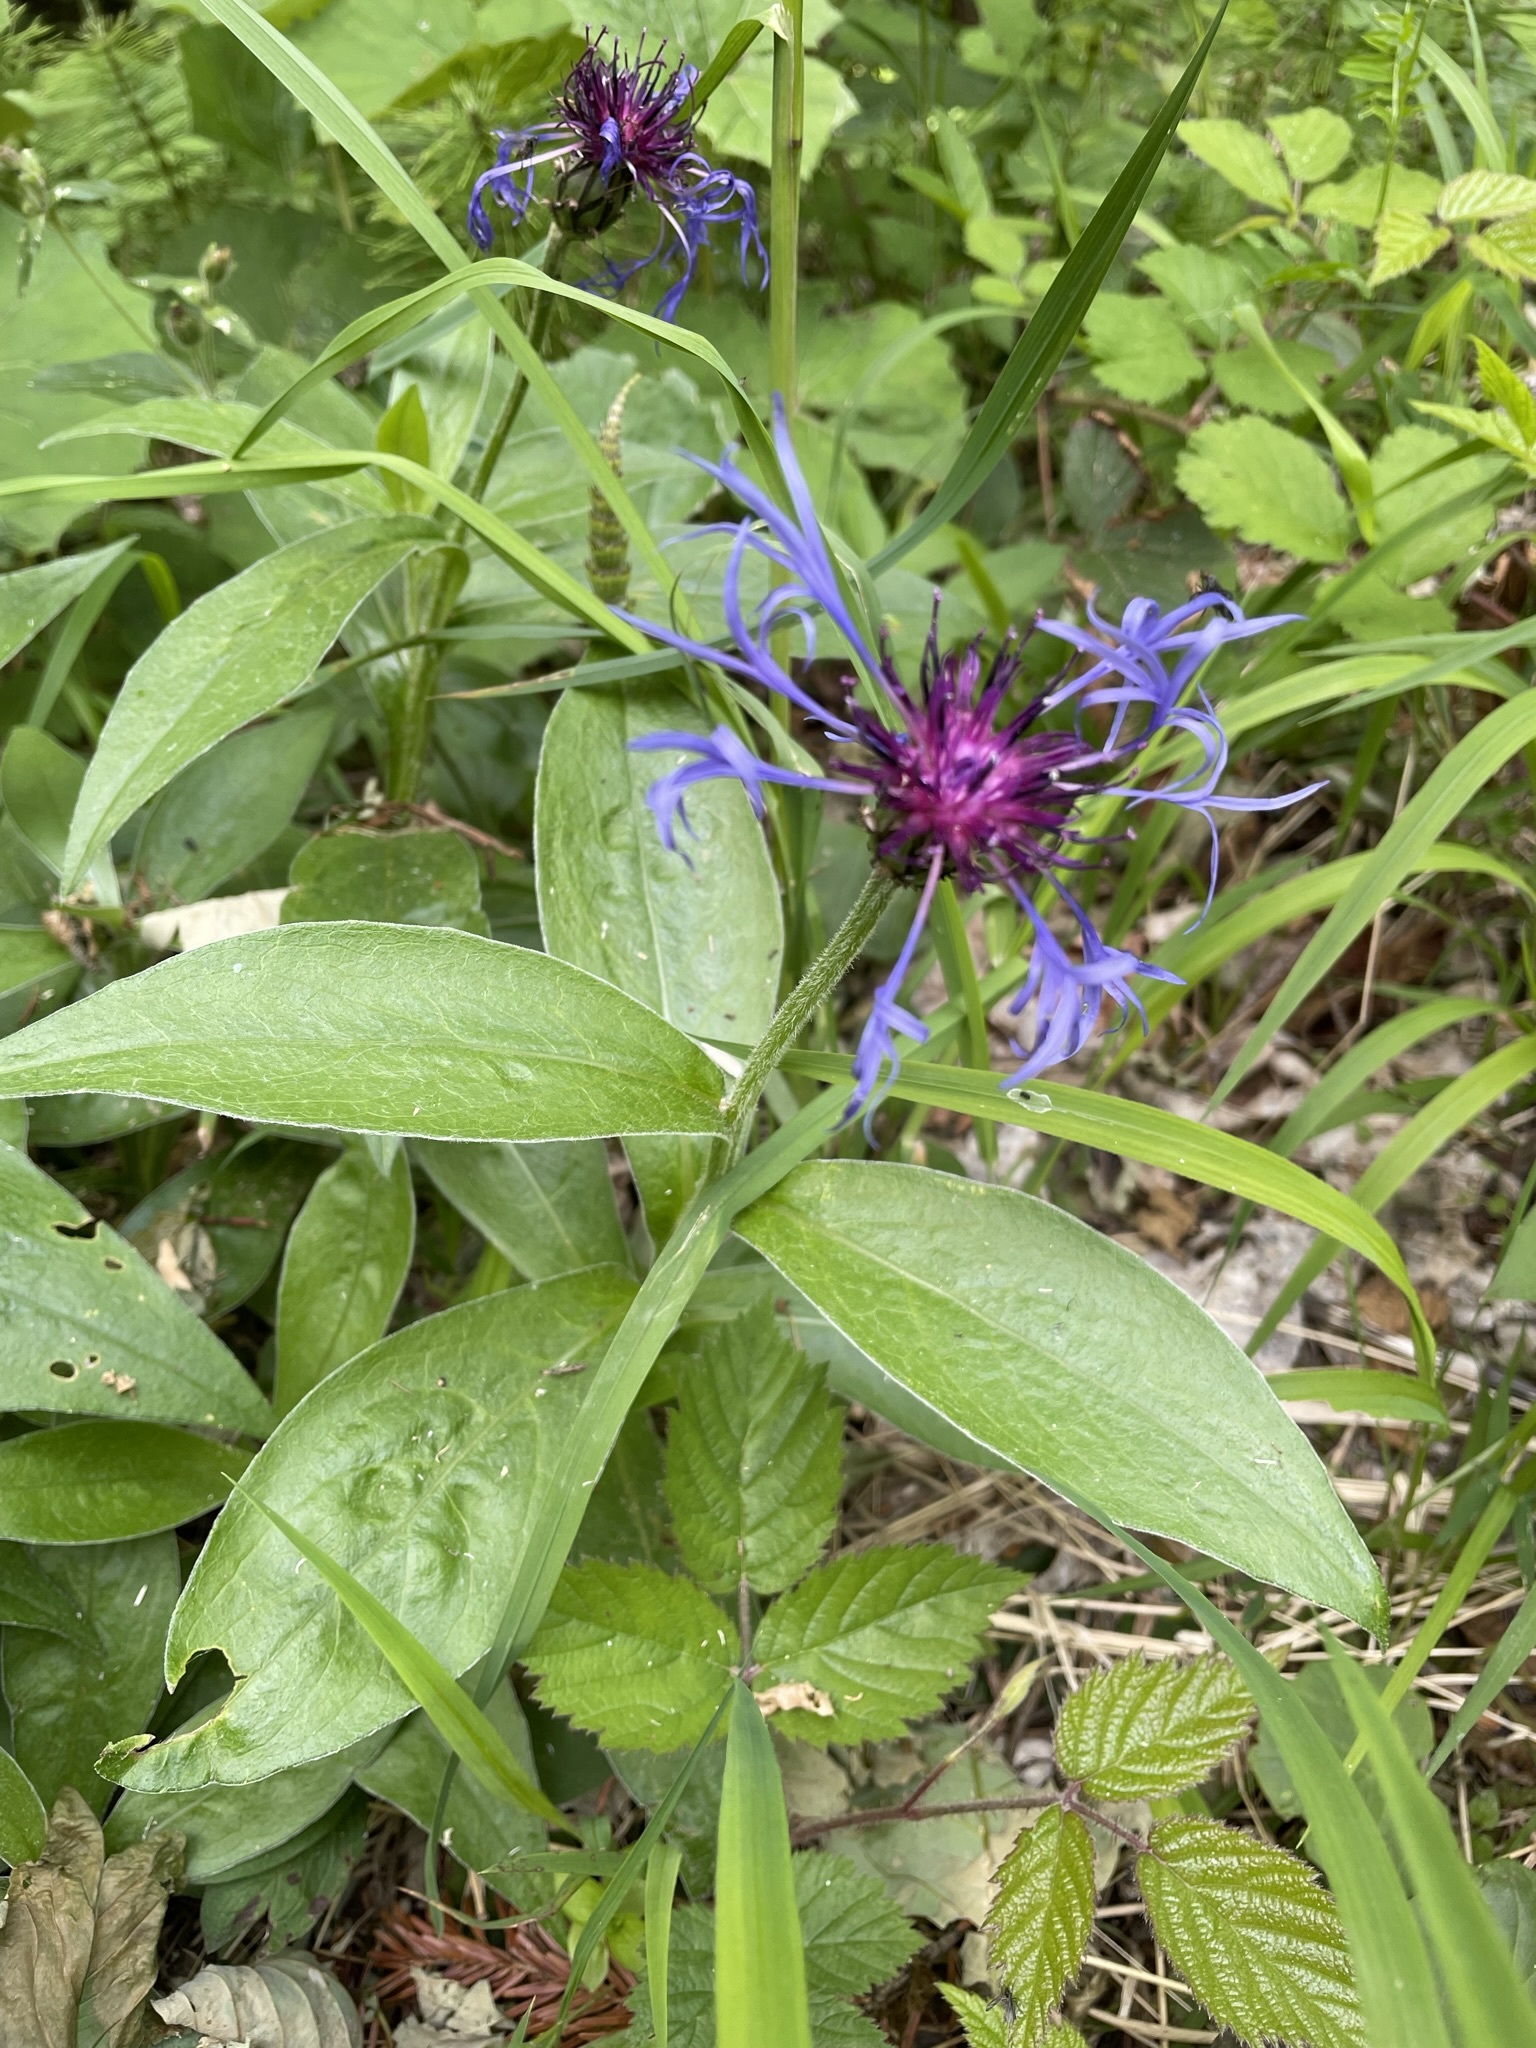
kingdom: Plantae
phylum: Tracheophyta
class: Magnoliopsida
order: Asterales
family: Asteraceae
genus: Centaurea
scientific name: Centaurea montana
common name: Perennial cornflower
